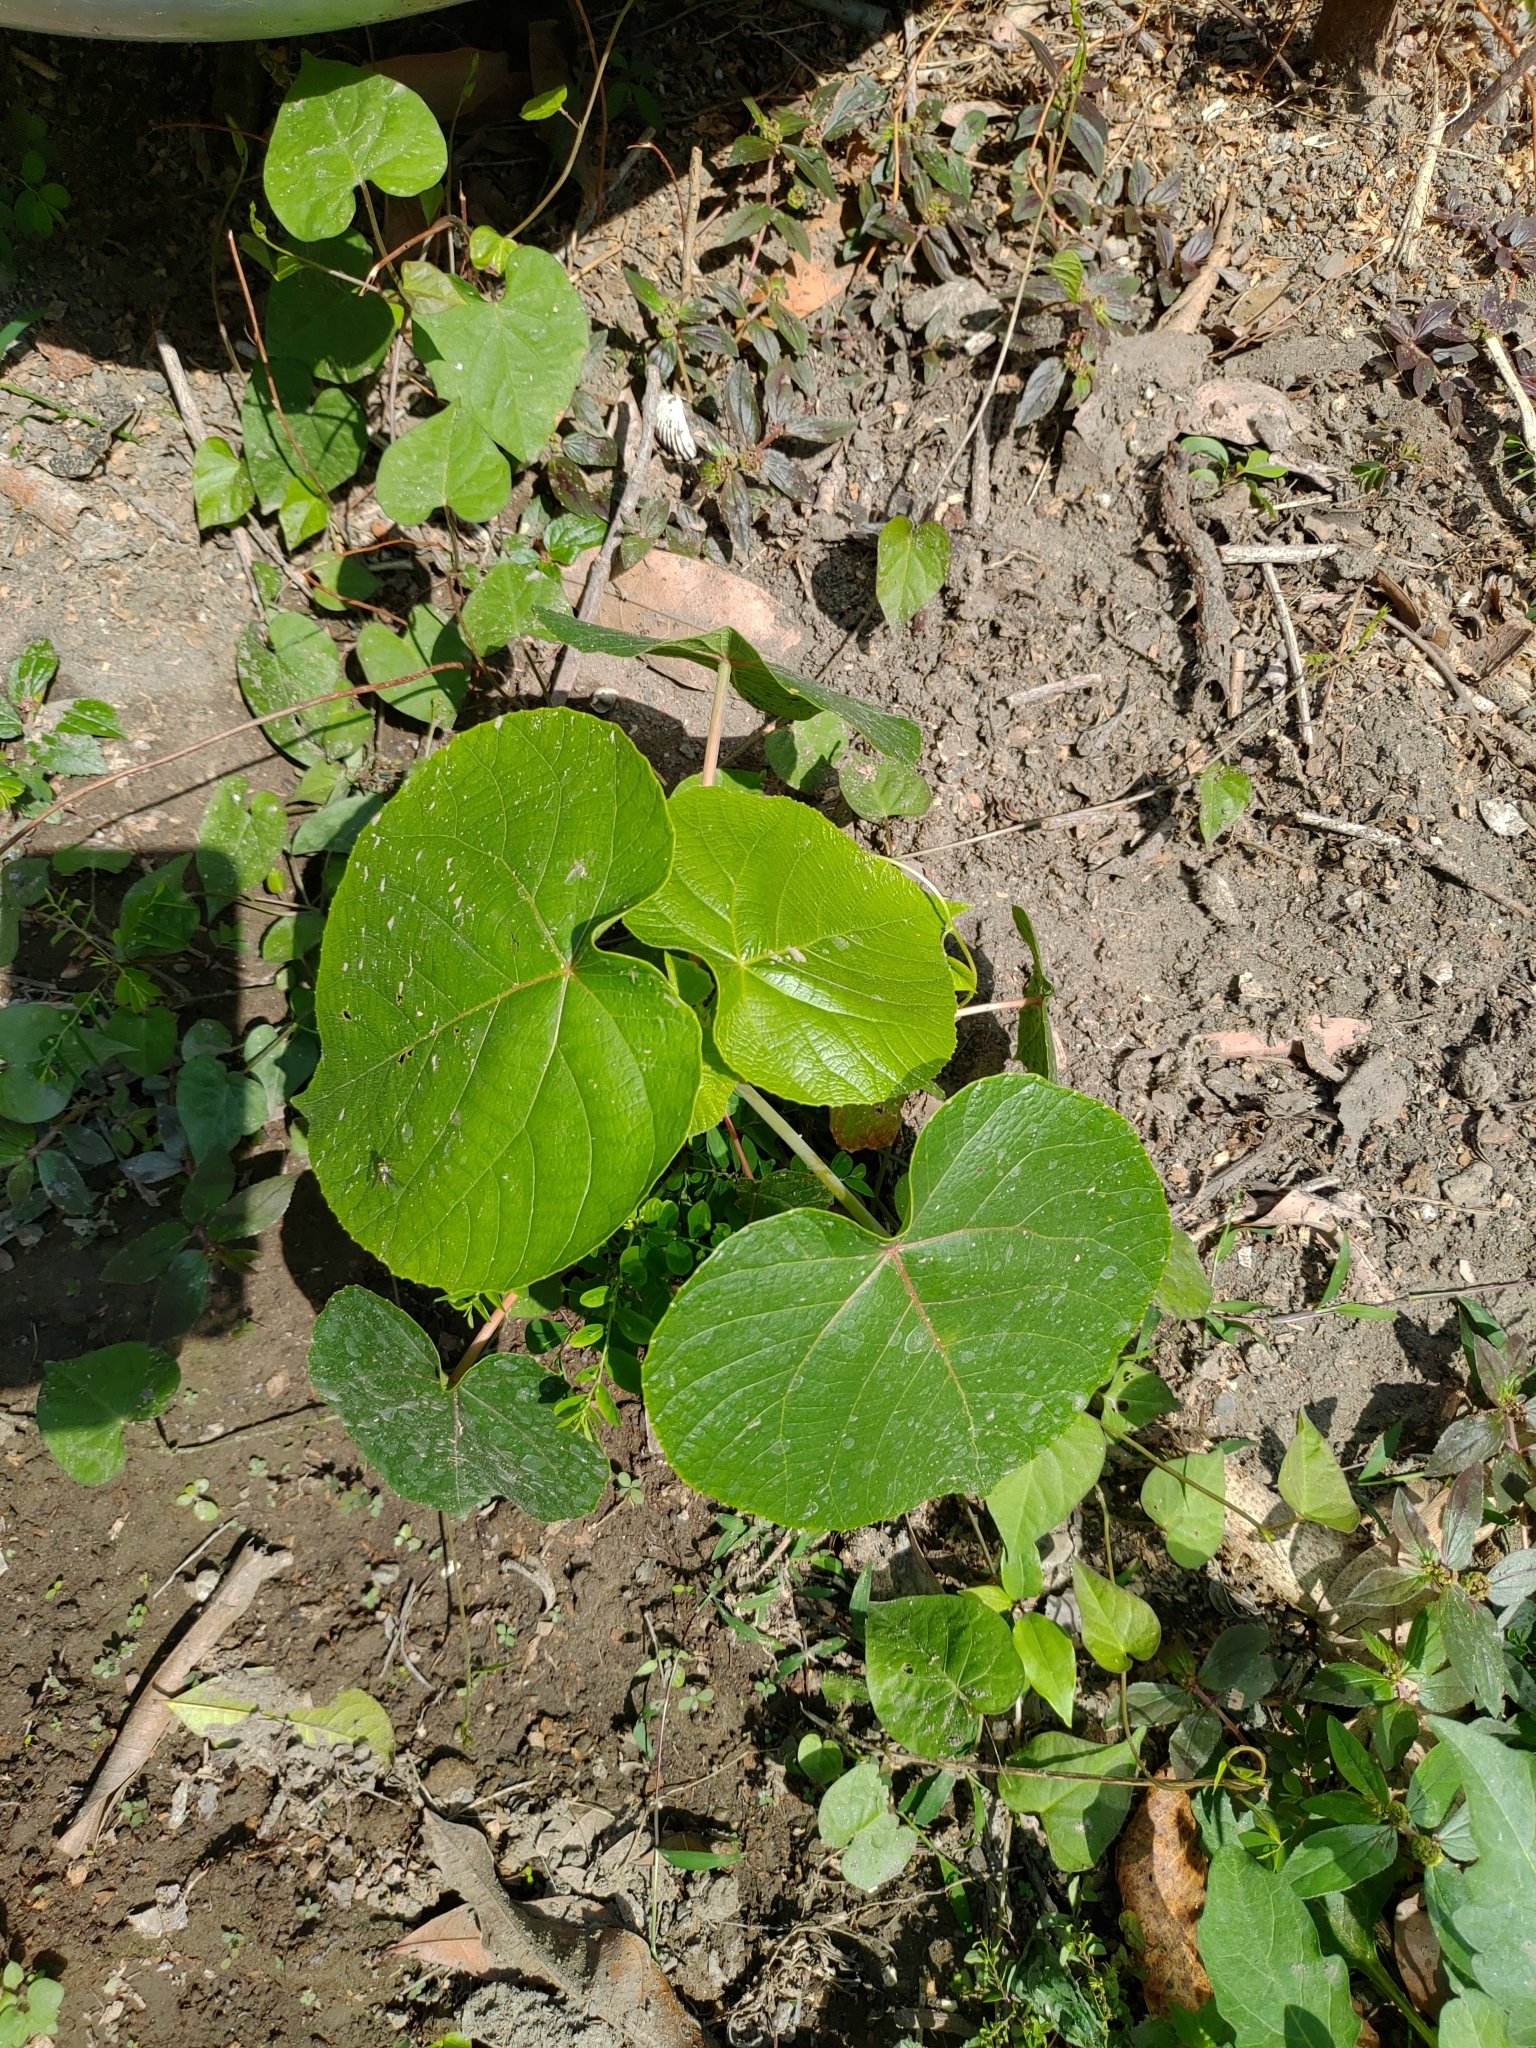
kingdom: Plantae
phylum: Tracheophyta
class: Magnoliopsida
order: Malpighiales
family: Euphorbiaceae
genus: Macaranga
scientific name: Macaranga tanarius
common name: Parasol leaf tree
